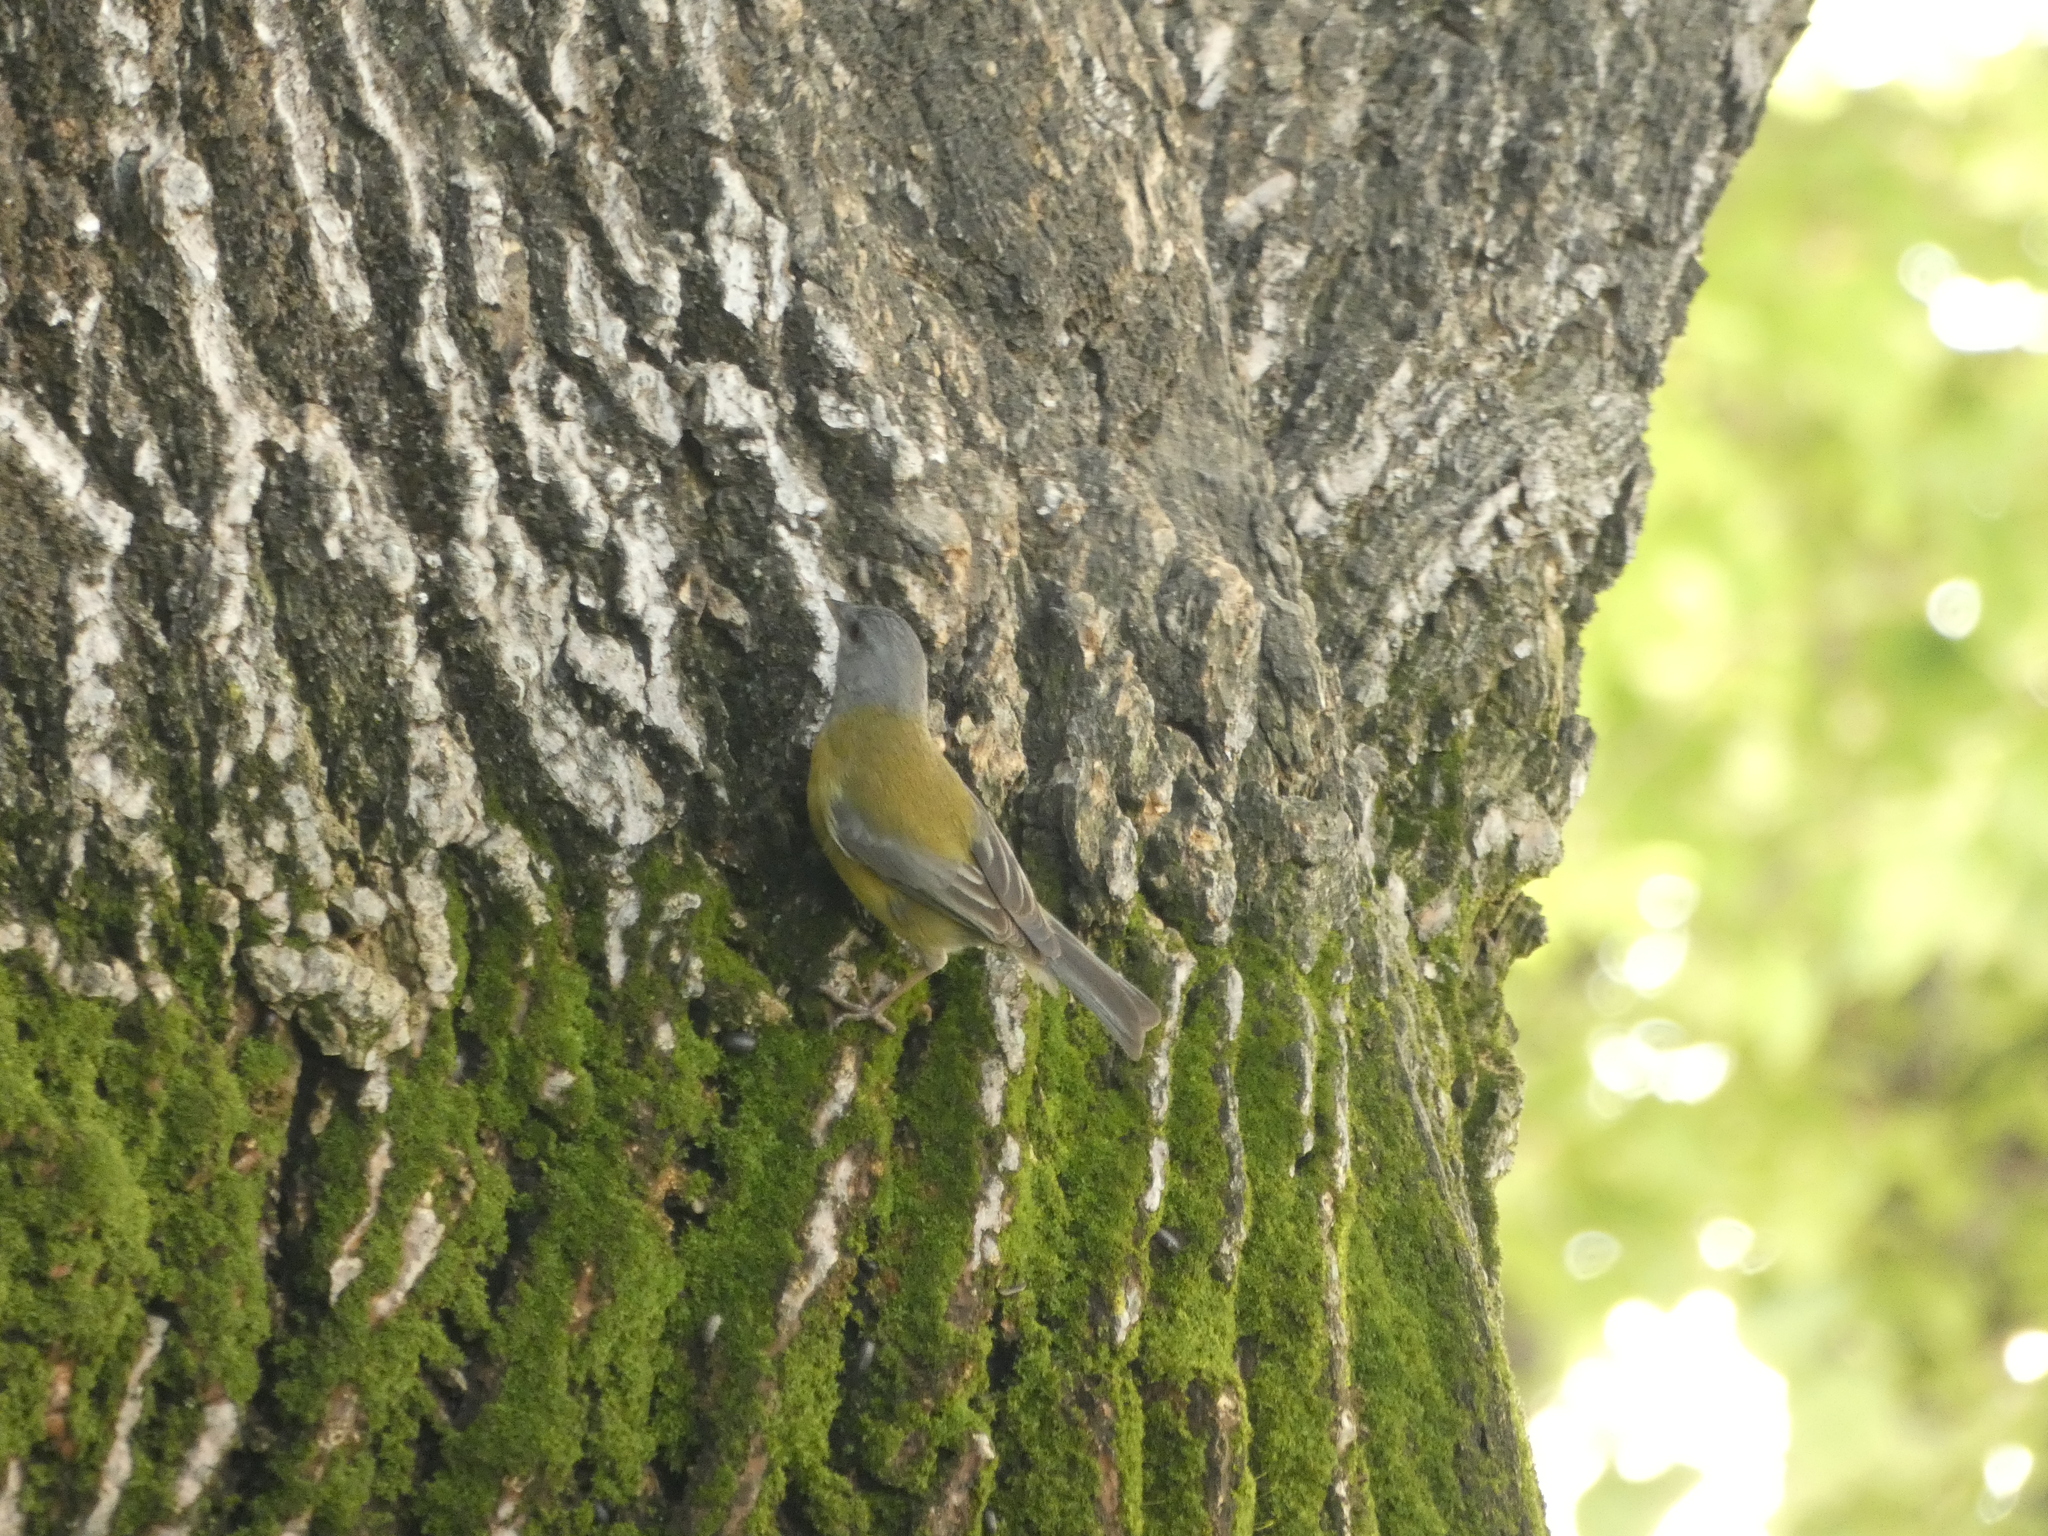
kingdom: Animalia
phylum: Chordata
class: Aves
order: Passeriformes
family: Thraupidae
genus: Phrygilus
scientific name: Phrygilus gayi
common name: Grey-hooded sierra finch
